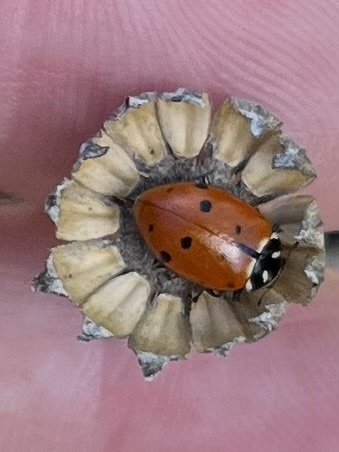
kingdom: Animalia
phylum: Arthropoda
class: Insecta
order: Coleoptera
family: Coccinellidae
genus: Hippodamia
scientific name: Hippodamia convergens
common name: Convergent lady beetle
